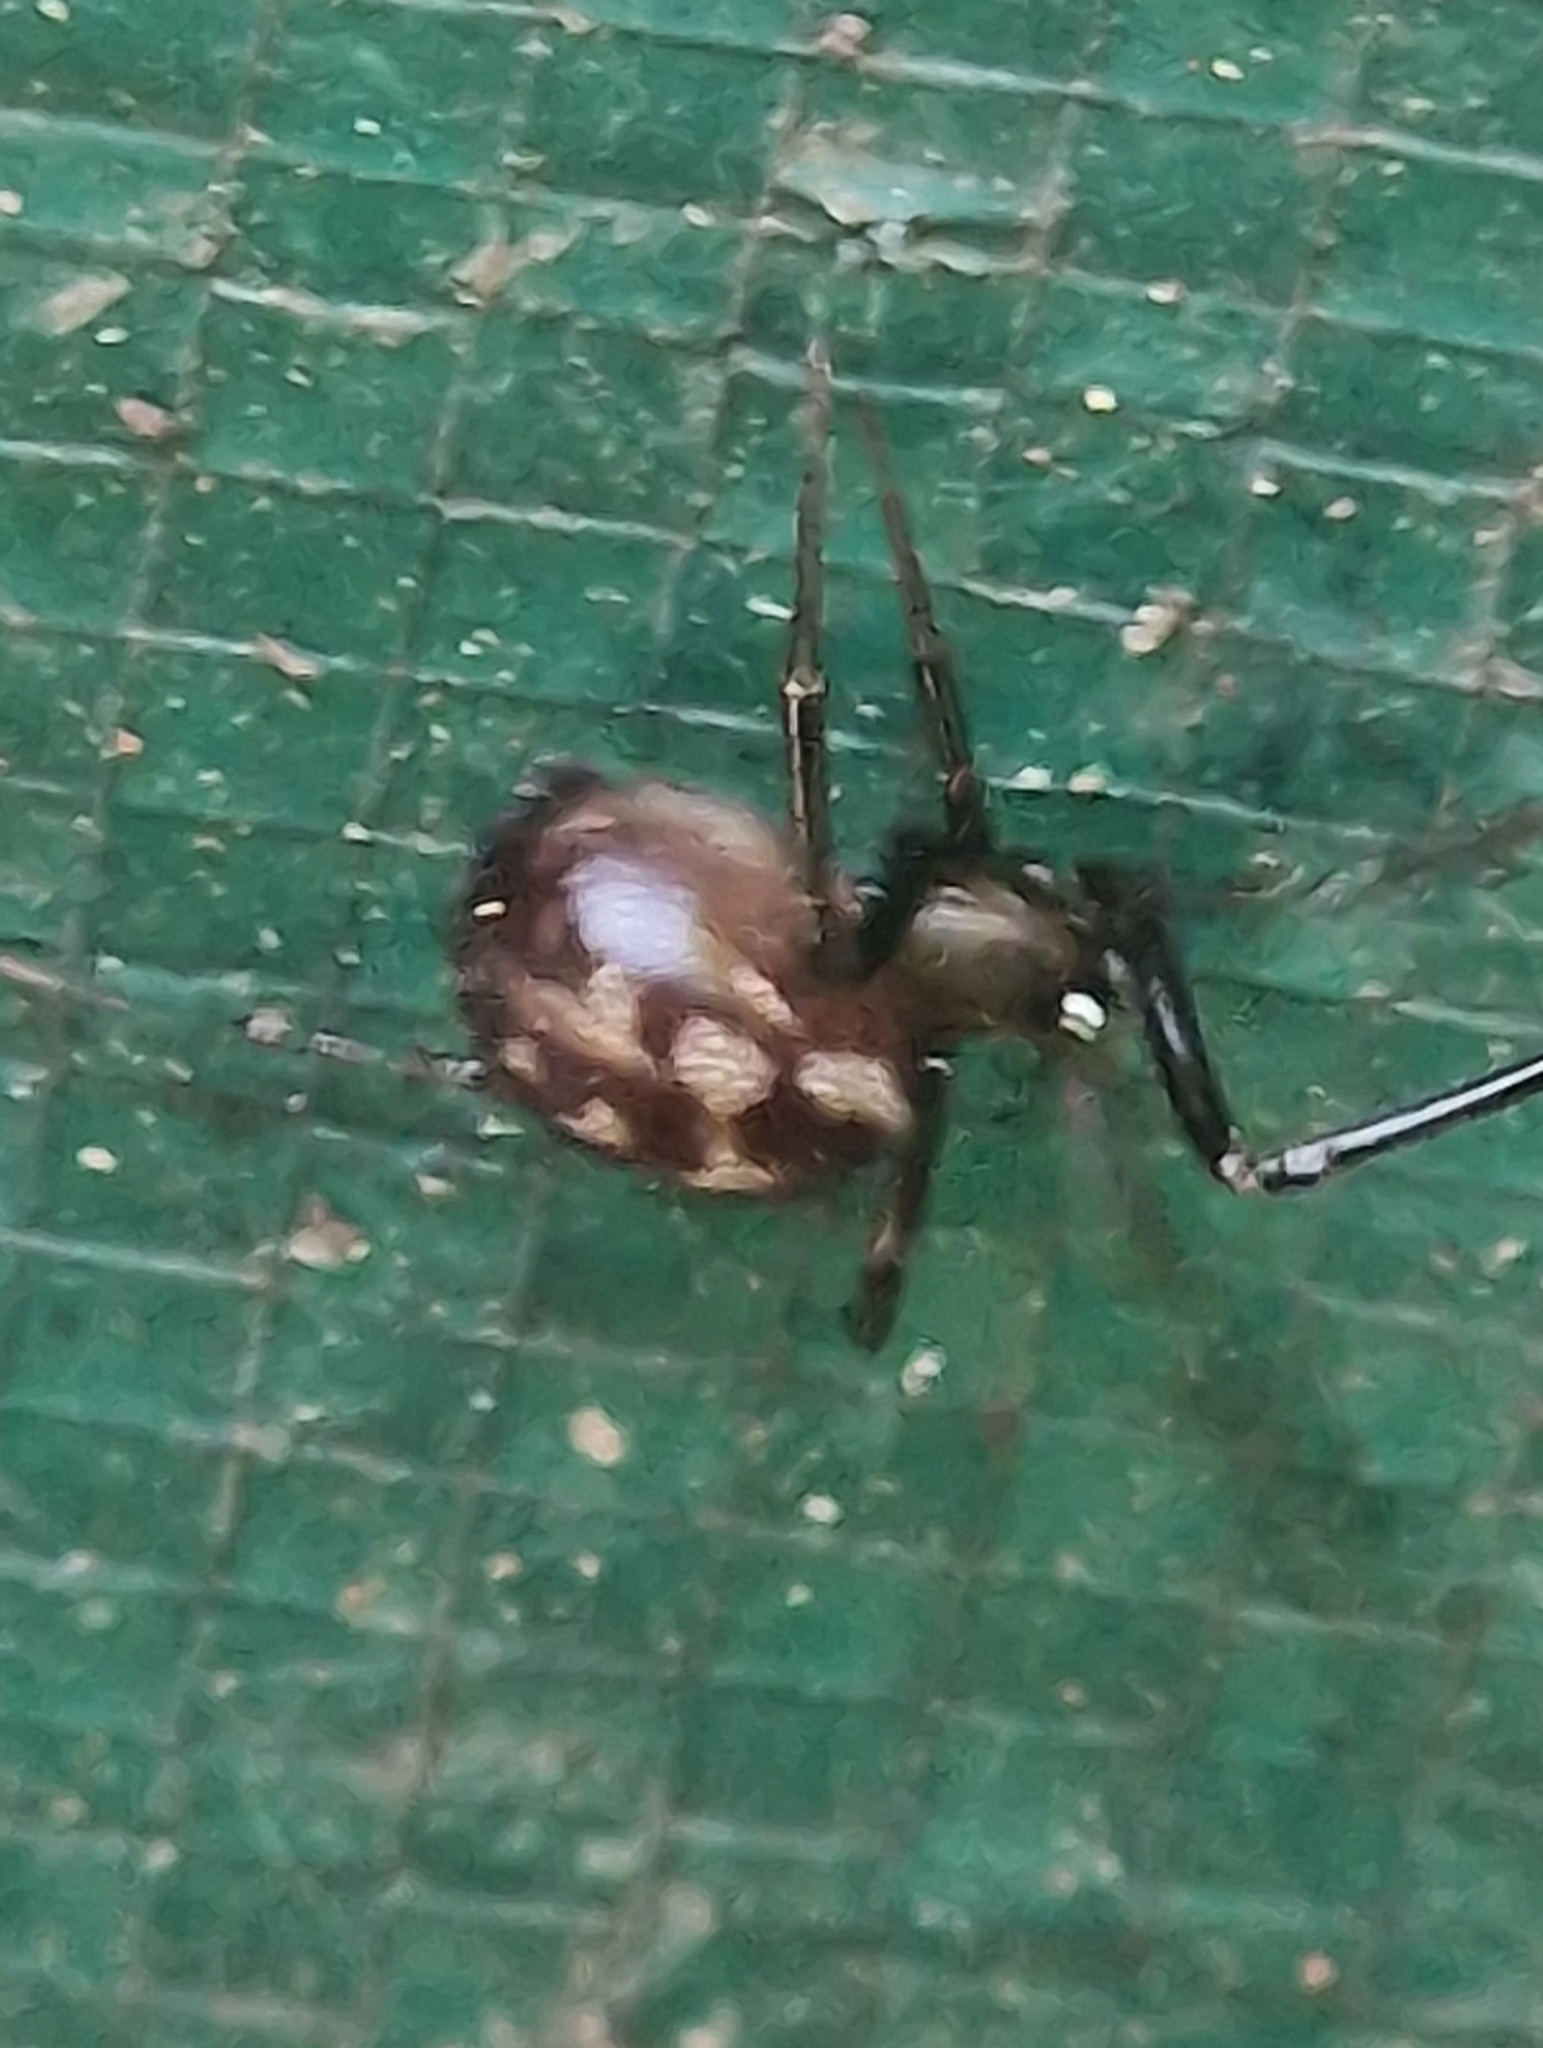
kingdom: Animalia
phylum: Arthropoda
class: Arachnida
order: Araneae
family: Theridiidae
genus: Steatoda
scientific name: Steatoda grossa
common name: False black widow
